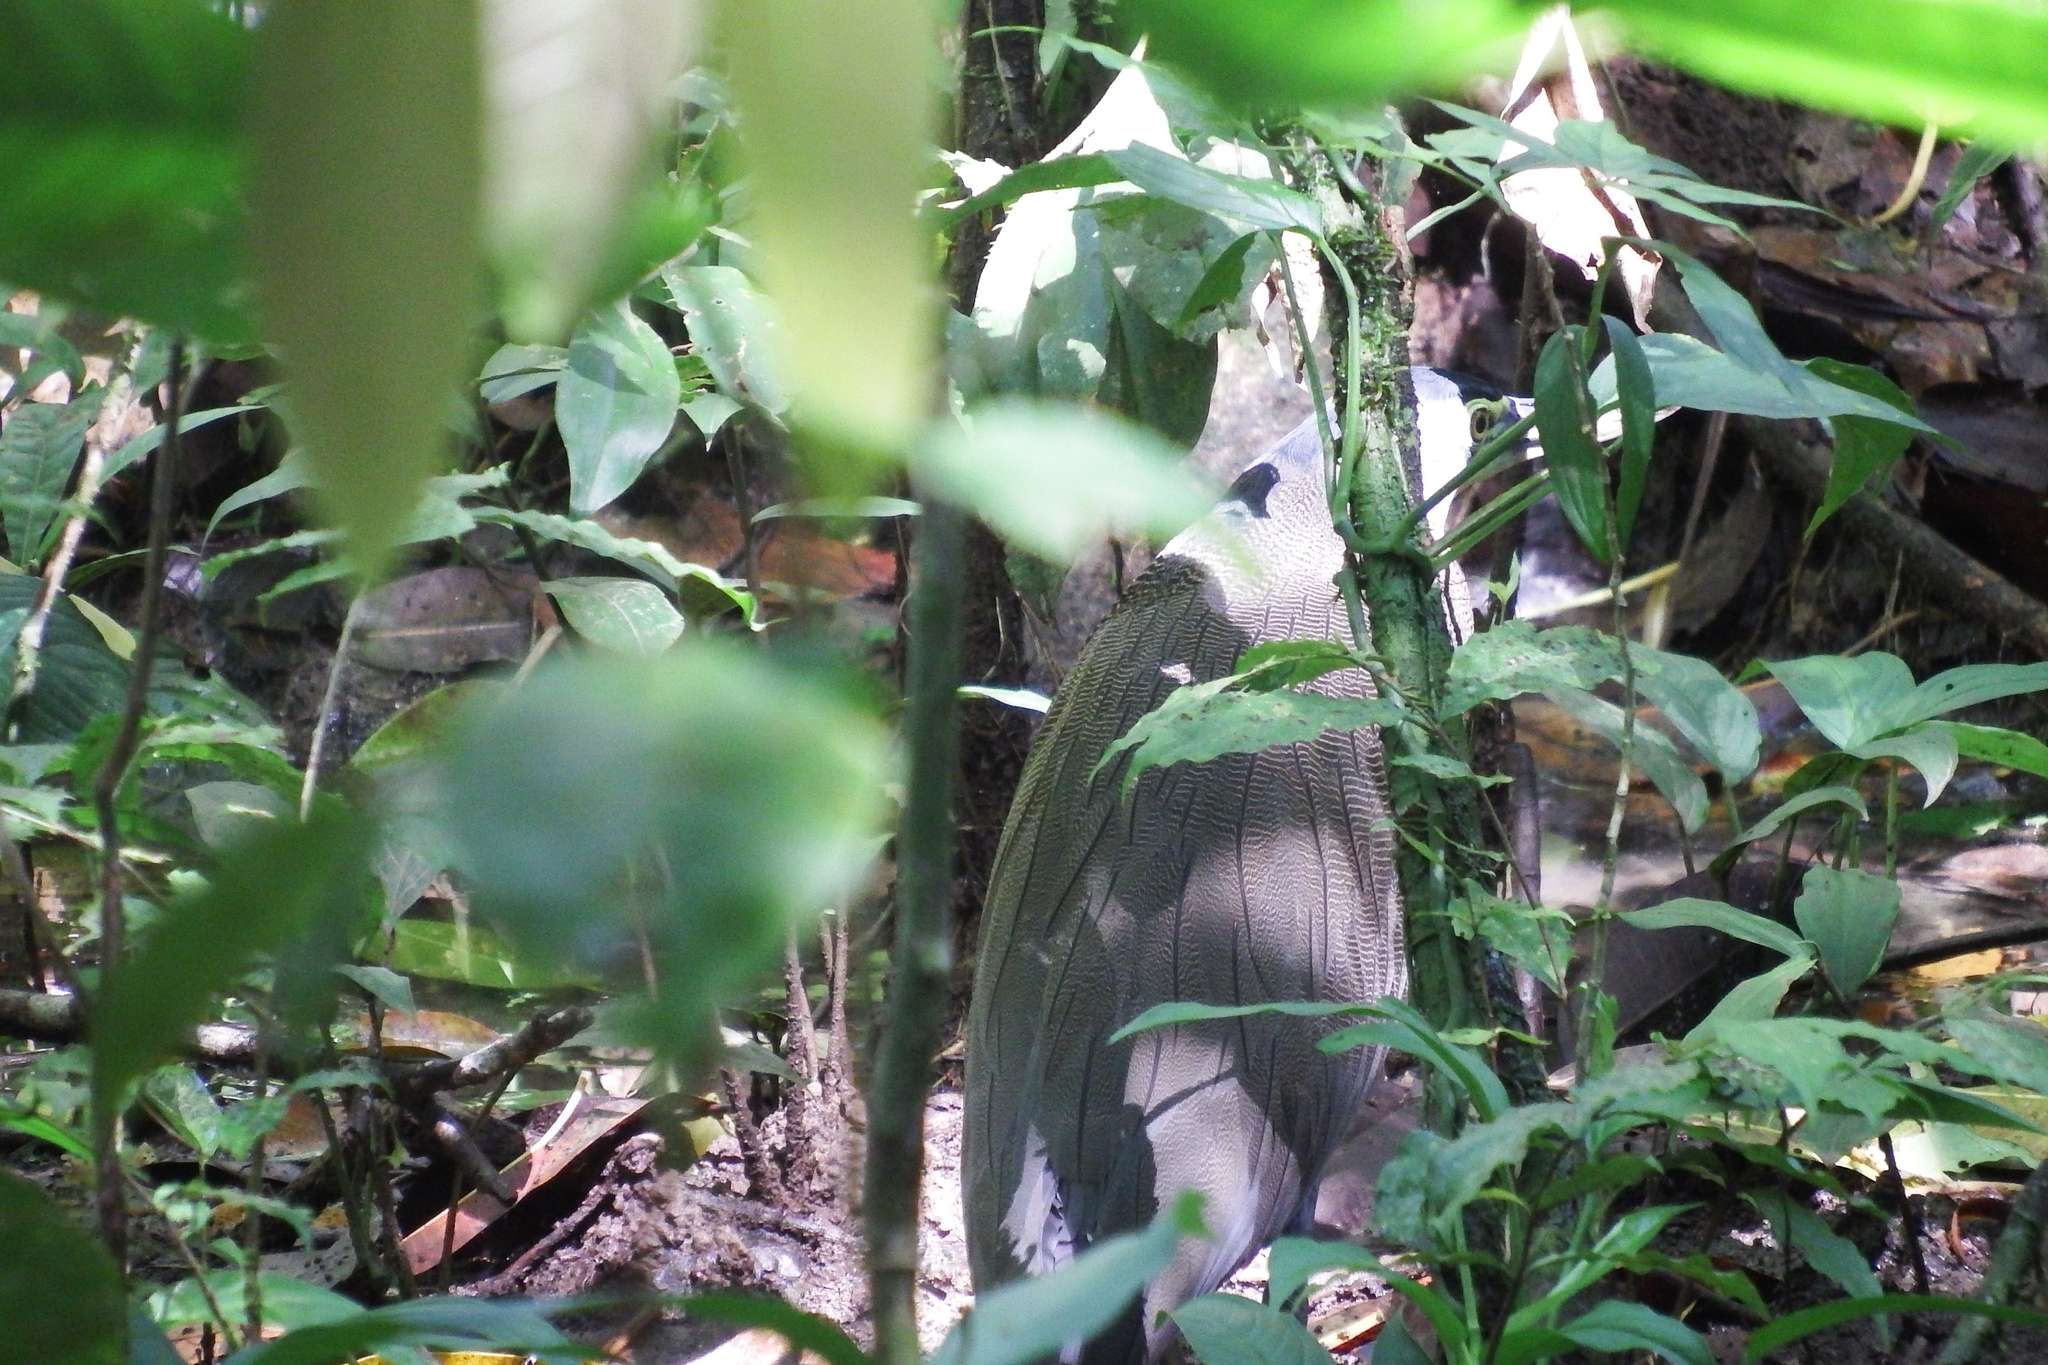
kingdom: Animalia
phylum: Chordata
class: Aves
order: Pelecaniformes
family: Ardeidae
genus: Tigrisoma
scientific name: Tigrisoma mexicanum
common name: Bare-throated tiger-heron
